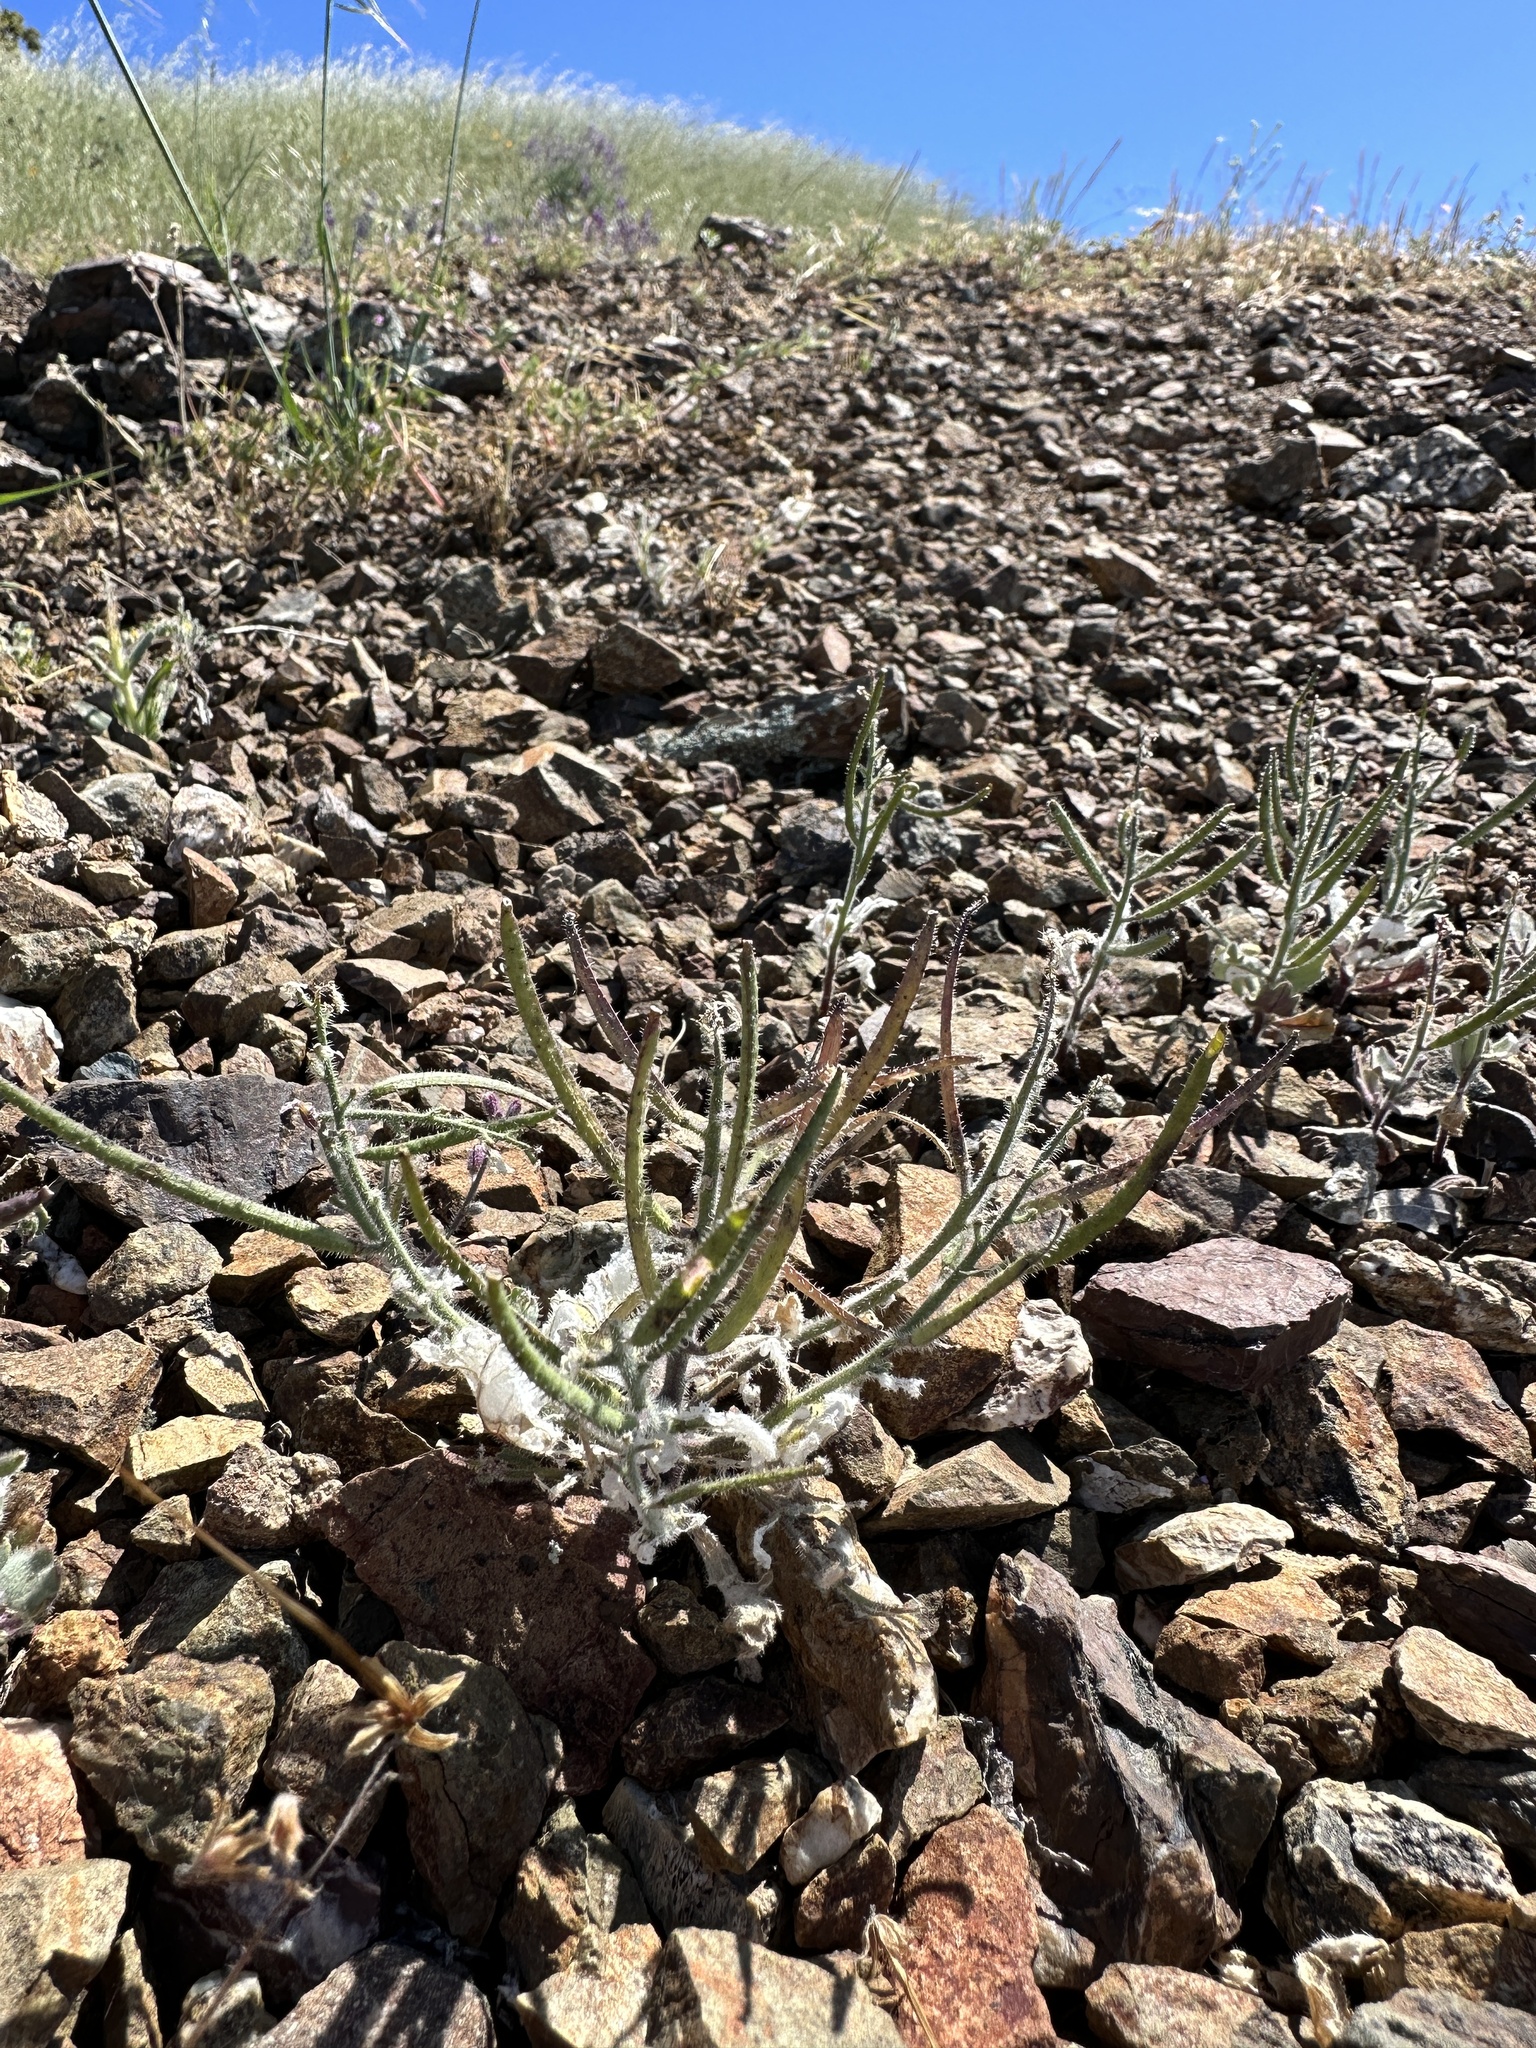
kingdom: Plantae
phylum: Tracheophyta
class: Magnoliopsida
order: Brassicales
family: Brassicaceae
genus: Streptanthus
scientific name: Streptanthus hispidus
